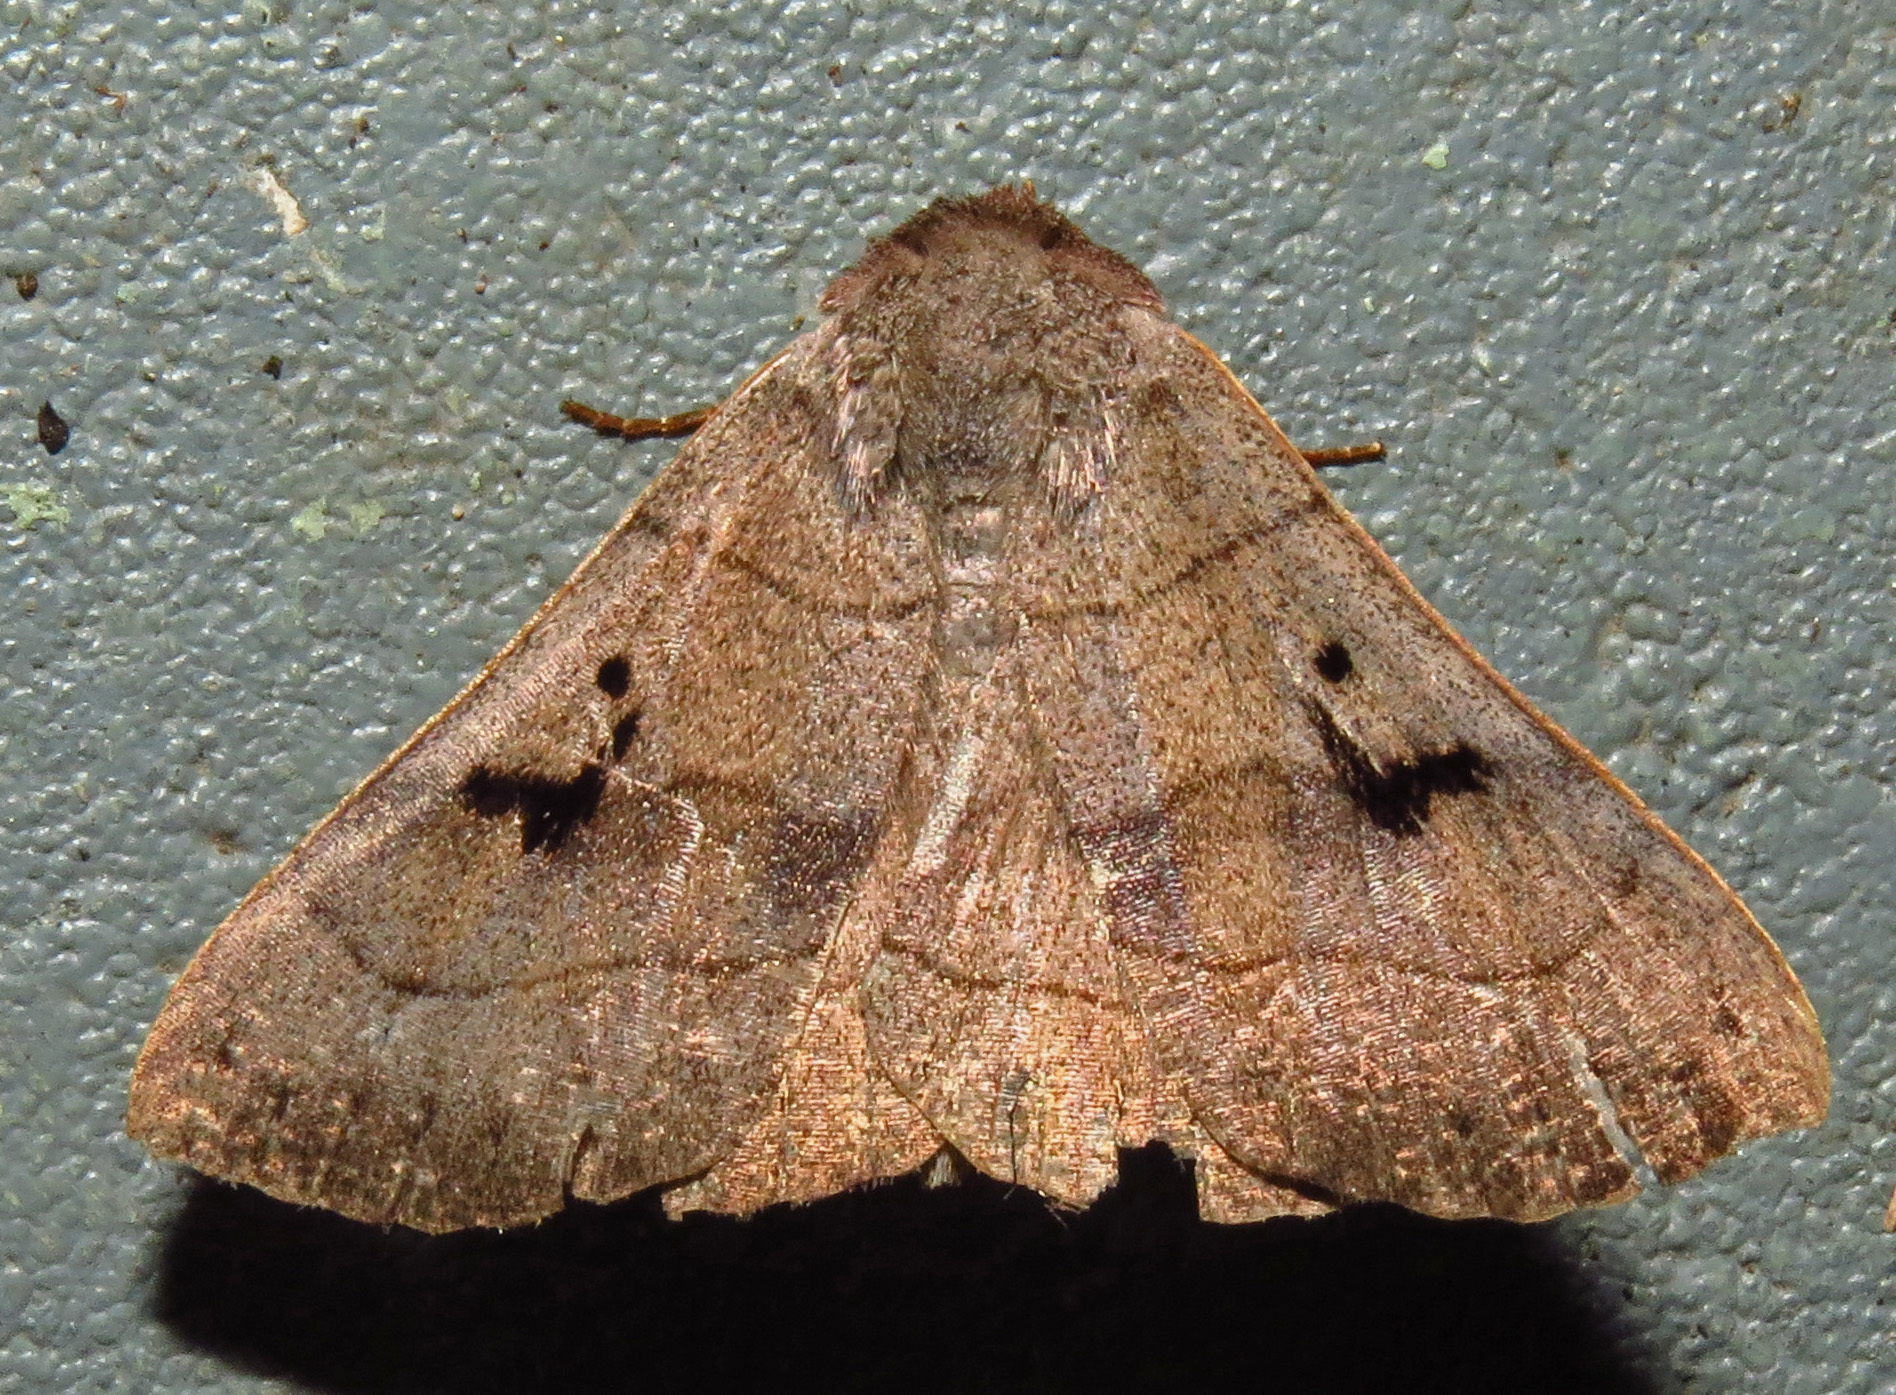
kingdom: Animalia
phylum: Arthropoda
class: Insecta
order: Lepidoptera
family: Erebidae
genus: Panopoda
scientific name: Panopoda carneicosta
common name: Brown panopoda moth
